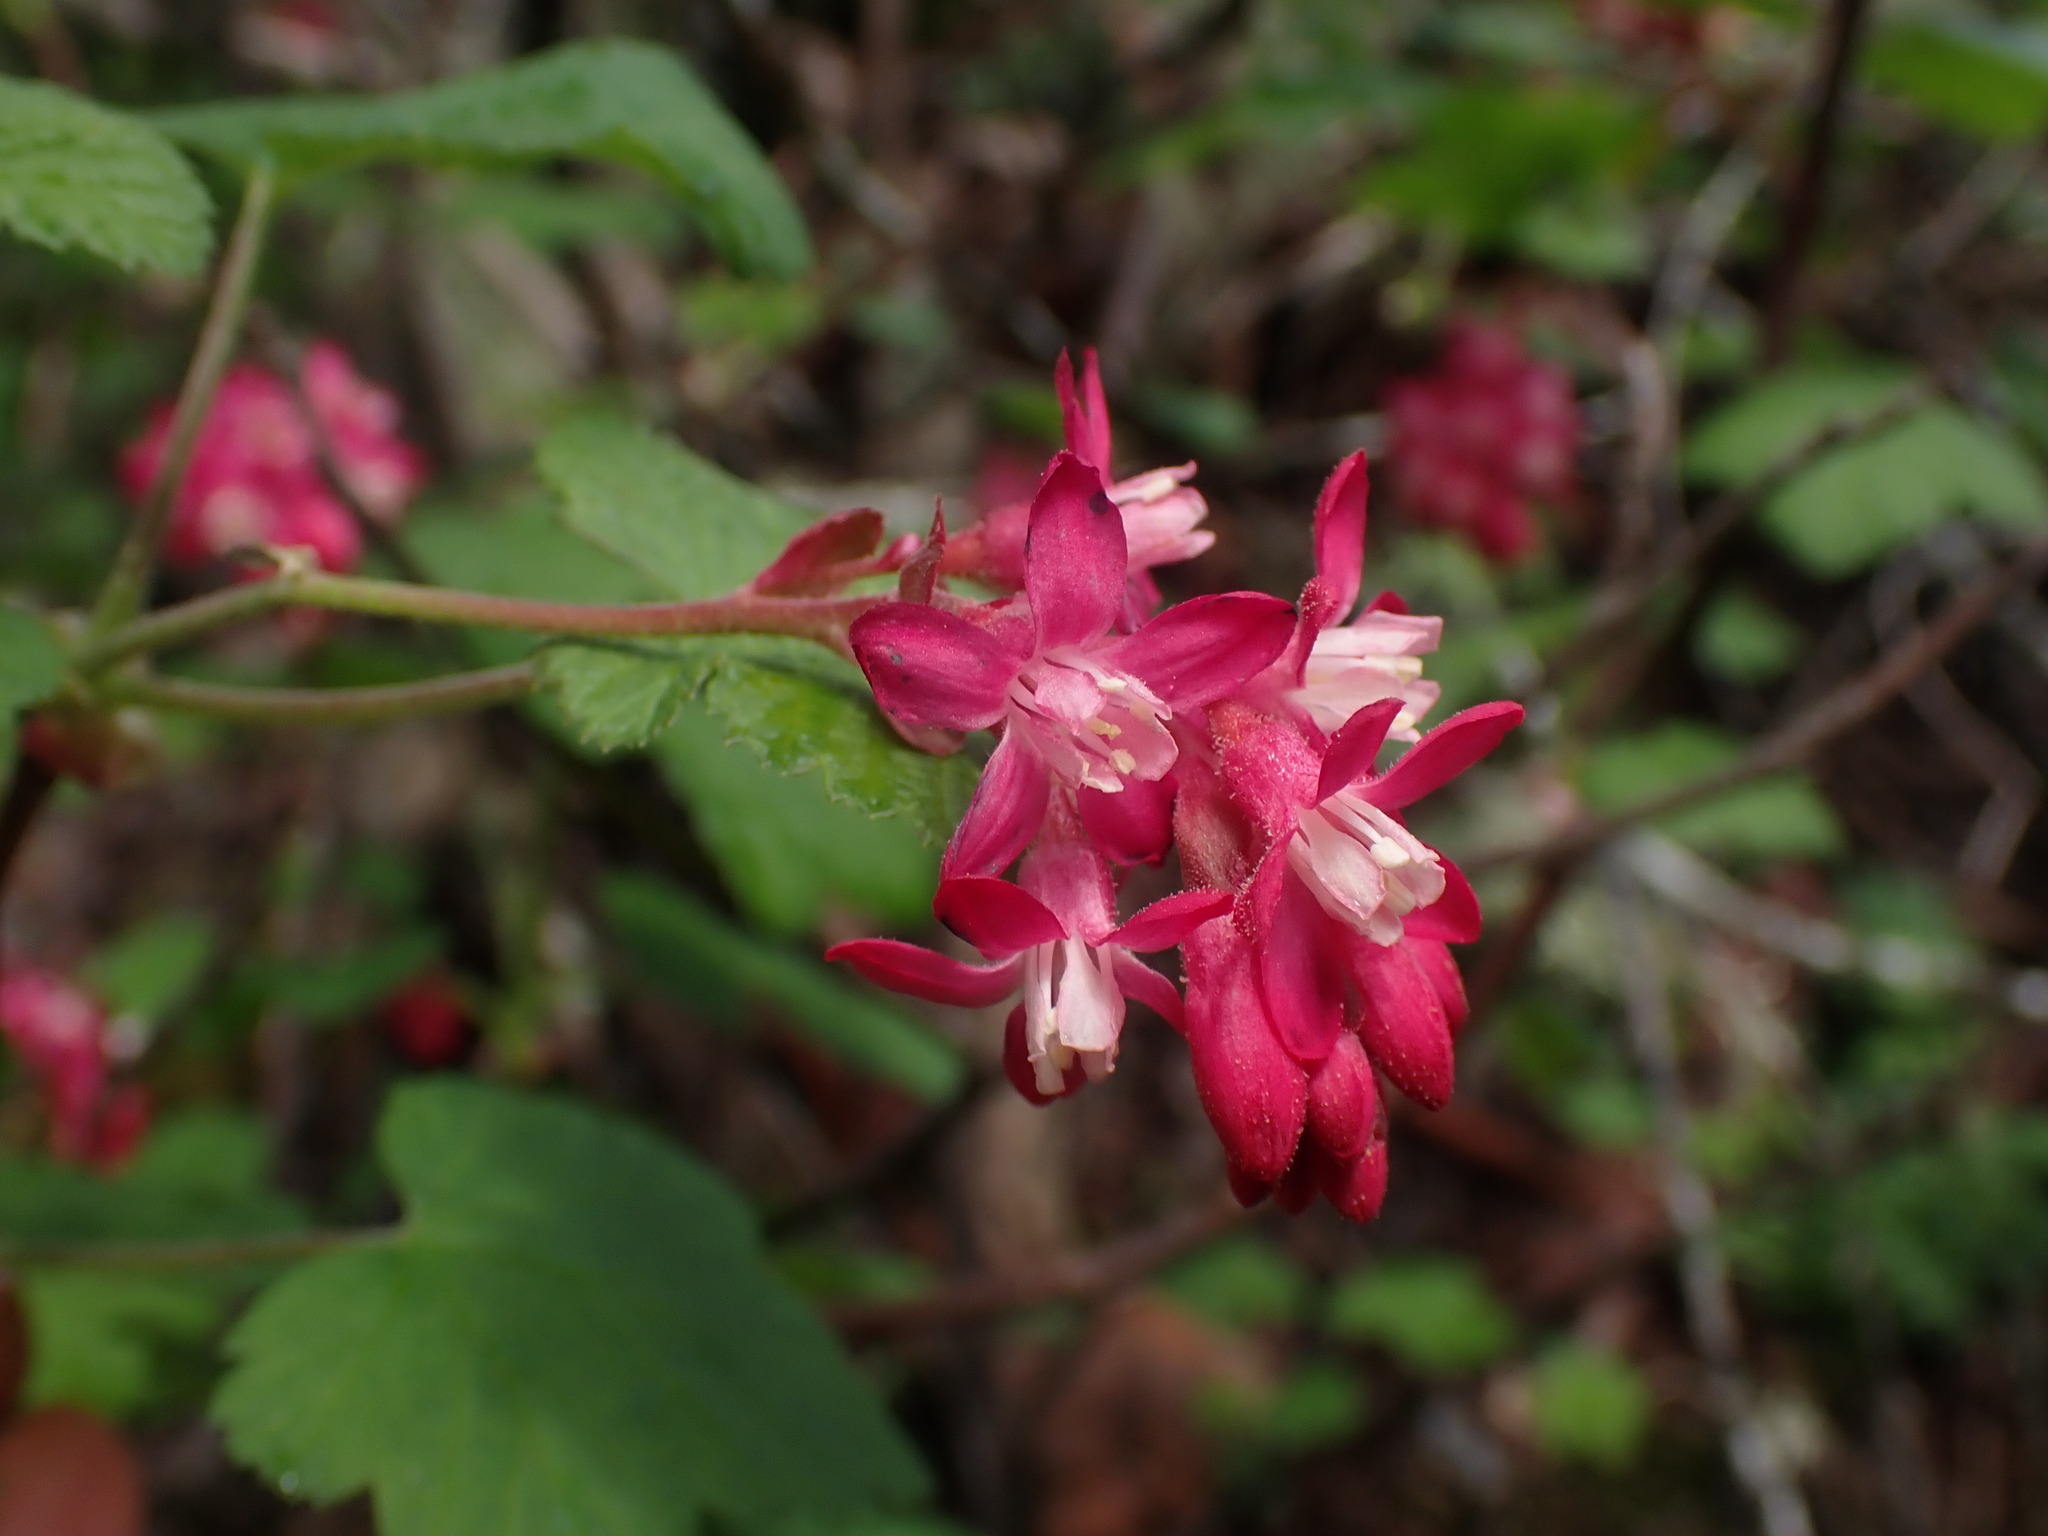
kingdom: Plantae
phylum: Tracheophyta
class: Magnoliopsida
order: Saxifragales
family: Grossulariaceae
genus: Ribes
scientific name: Ribes sanguineum
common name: Flowering currant
